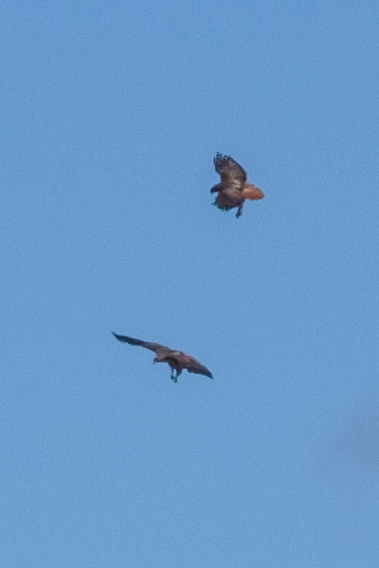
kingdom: Animalia
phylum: Chordata
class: Aves
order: Accipitriformes
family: Accipitridae
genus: Buteo
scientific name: Buteo jamaicensis
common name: Red-tailed hawk
